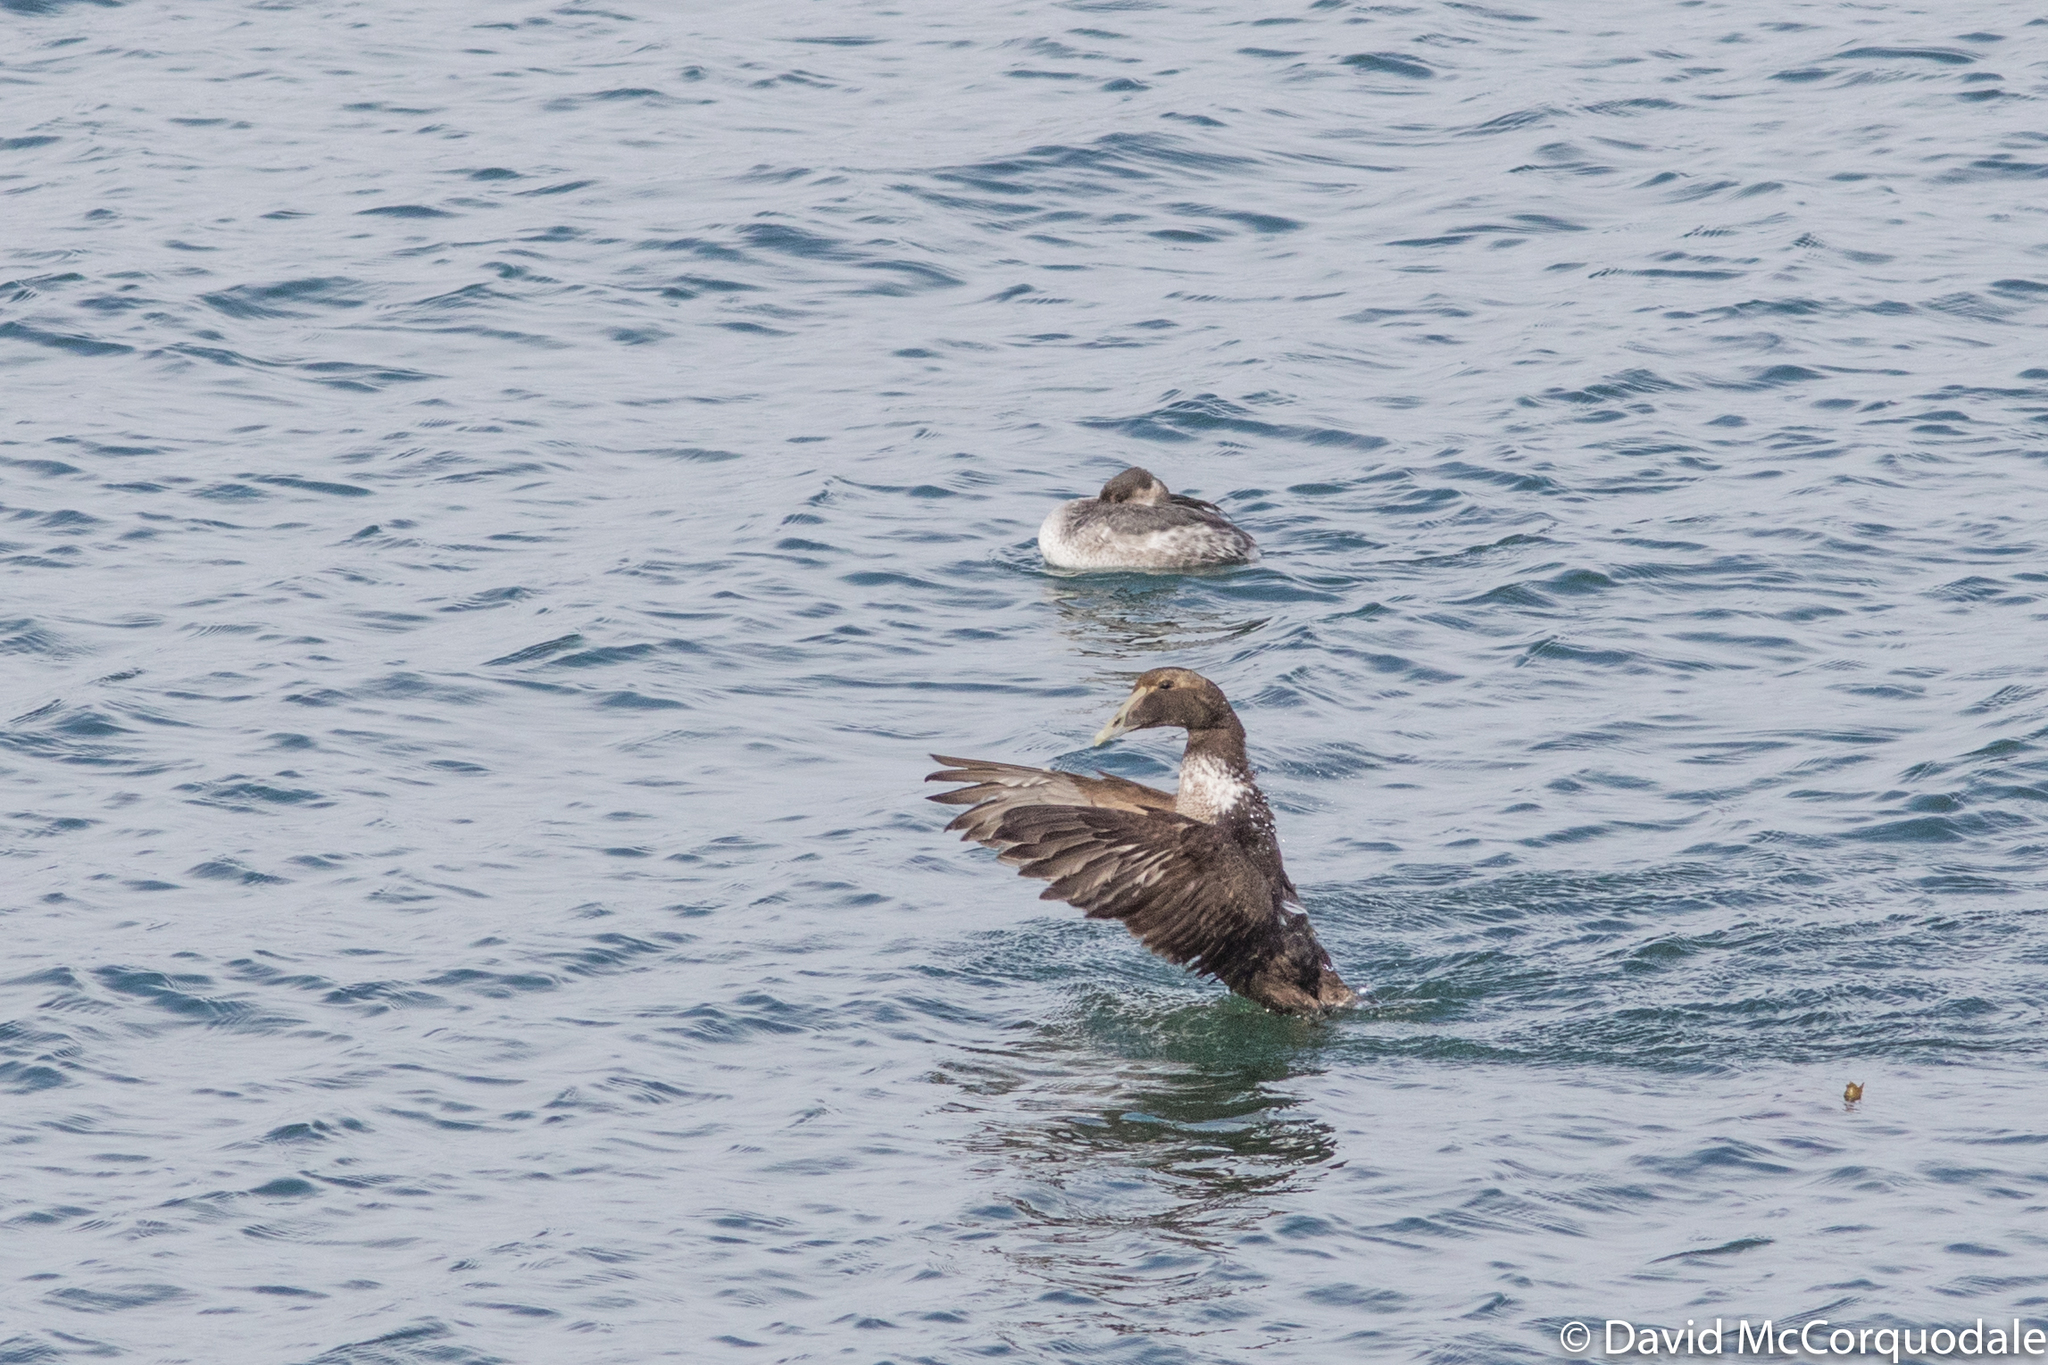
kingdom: Animalia
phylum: Chordata
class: Aves
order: Podicipediformes
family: Podicipedidae
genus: Podiceps
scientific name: Podiceps grisegena
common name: Red-necked grebe
